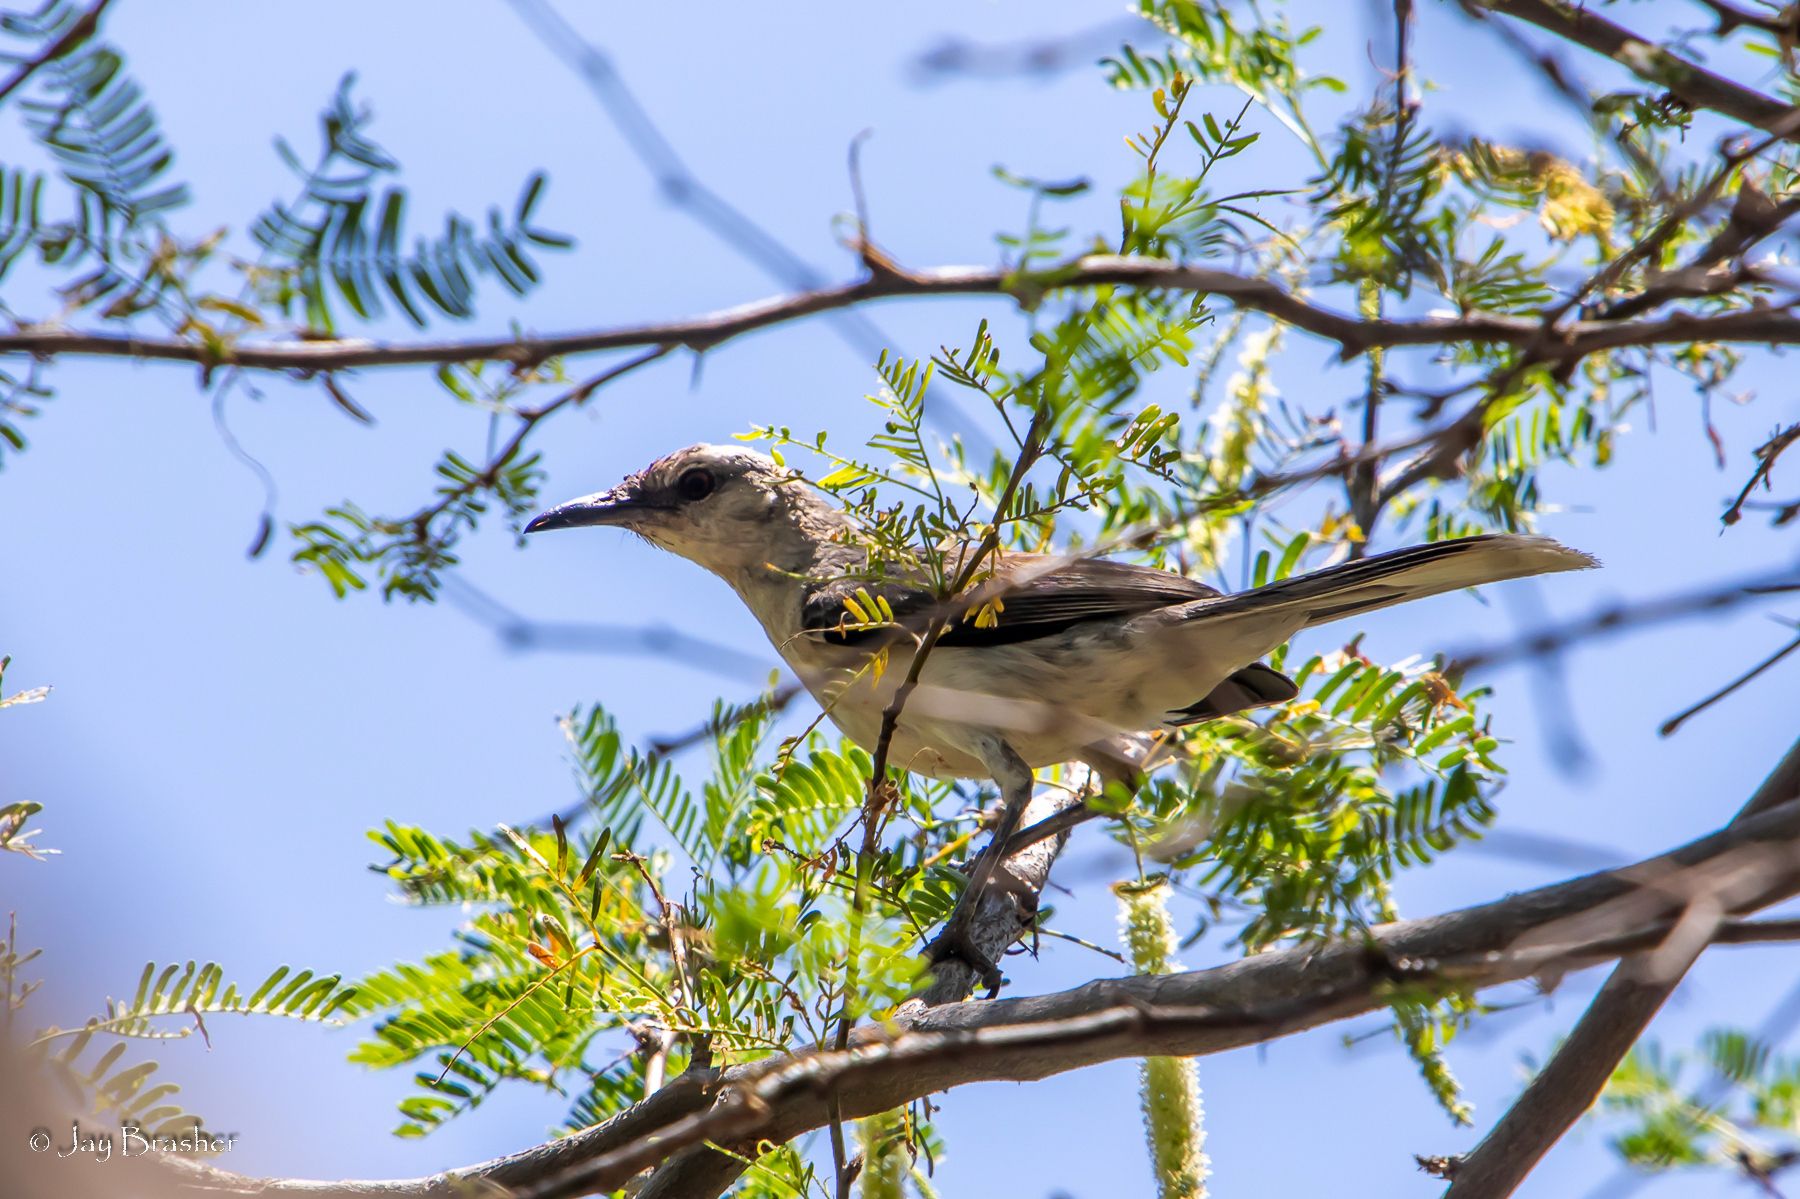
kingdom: Animalia
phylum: Chordata
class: Aves
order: Passeriformes
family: Mimidae
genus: Mimus
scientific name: Mimus gilvus
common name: Tropical mockingbird
